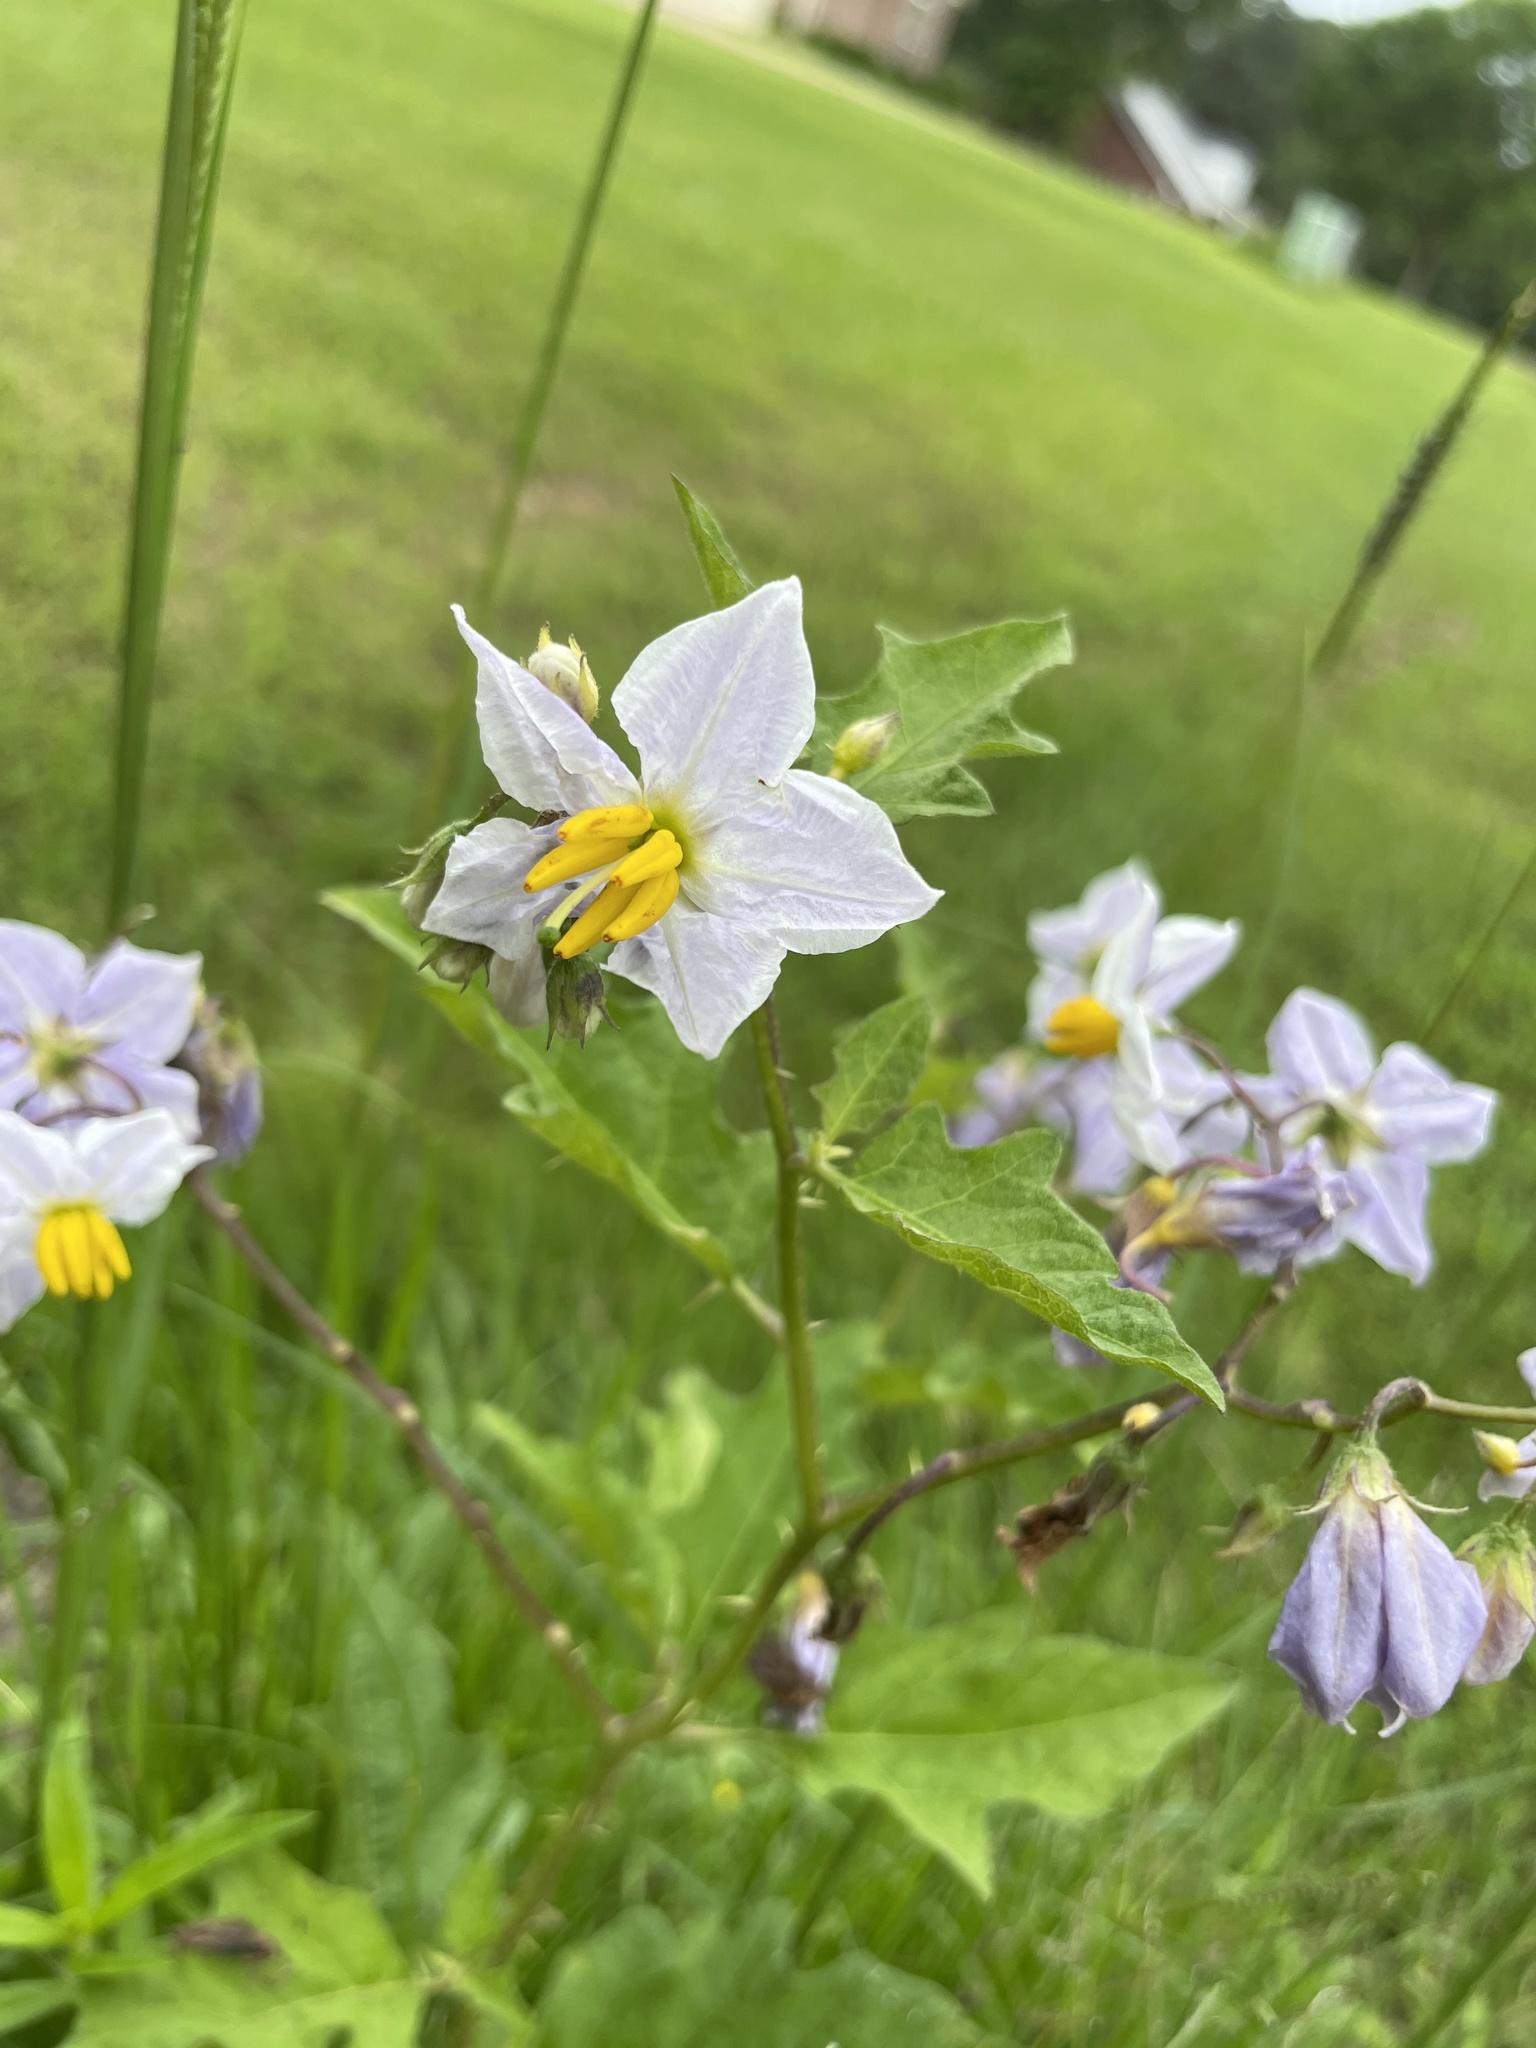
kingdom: Plantae
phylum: Tracheophyta
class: Magnoliopsida
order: Solanales
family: Solanaceae
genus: Solanum
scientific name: Solanum carolinense
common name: Horse-nettle
